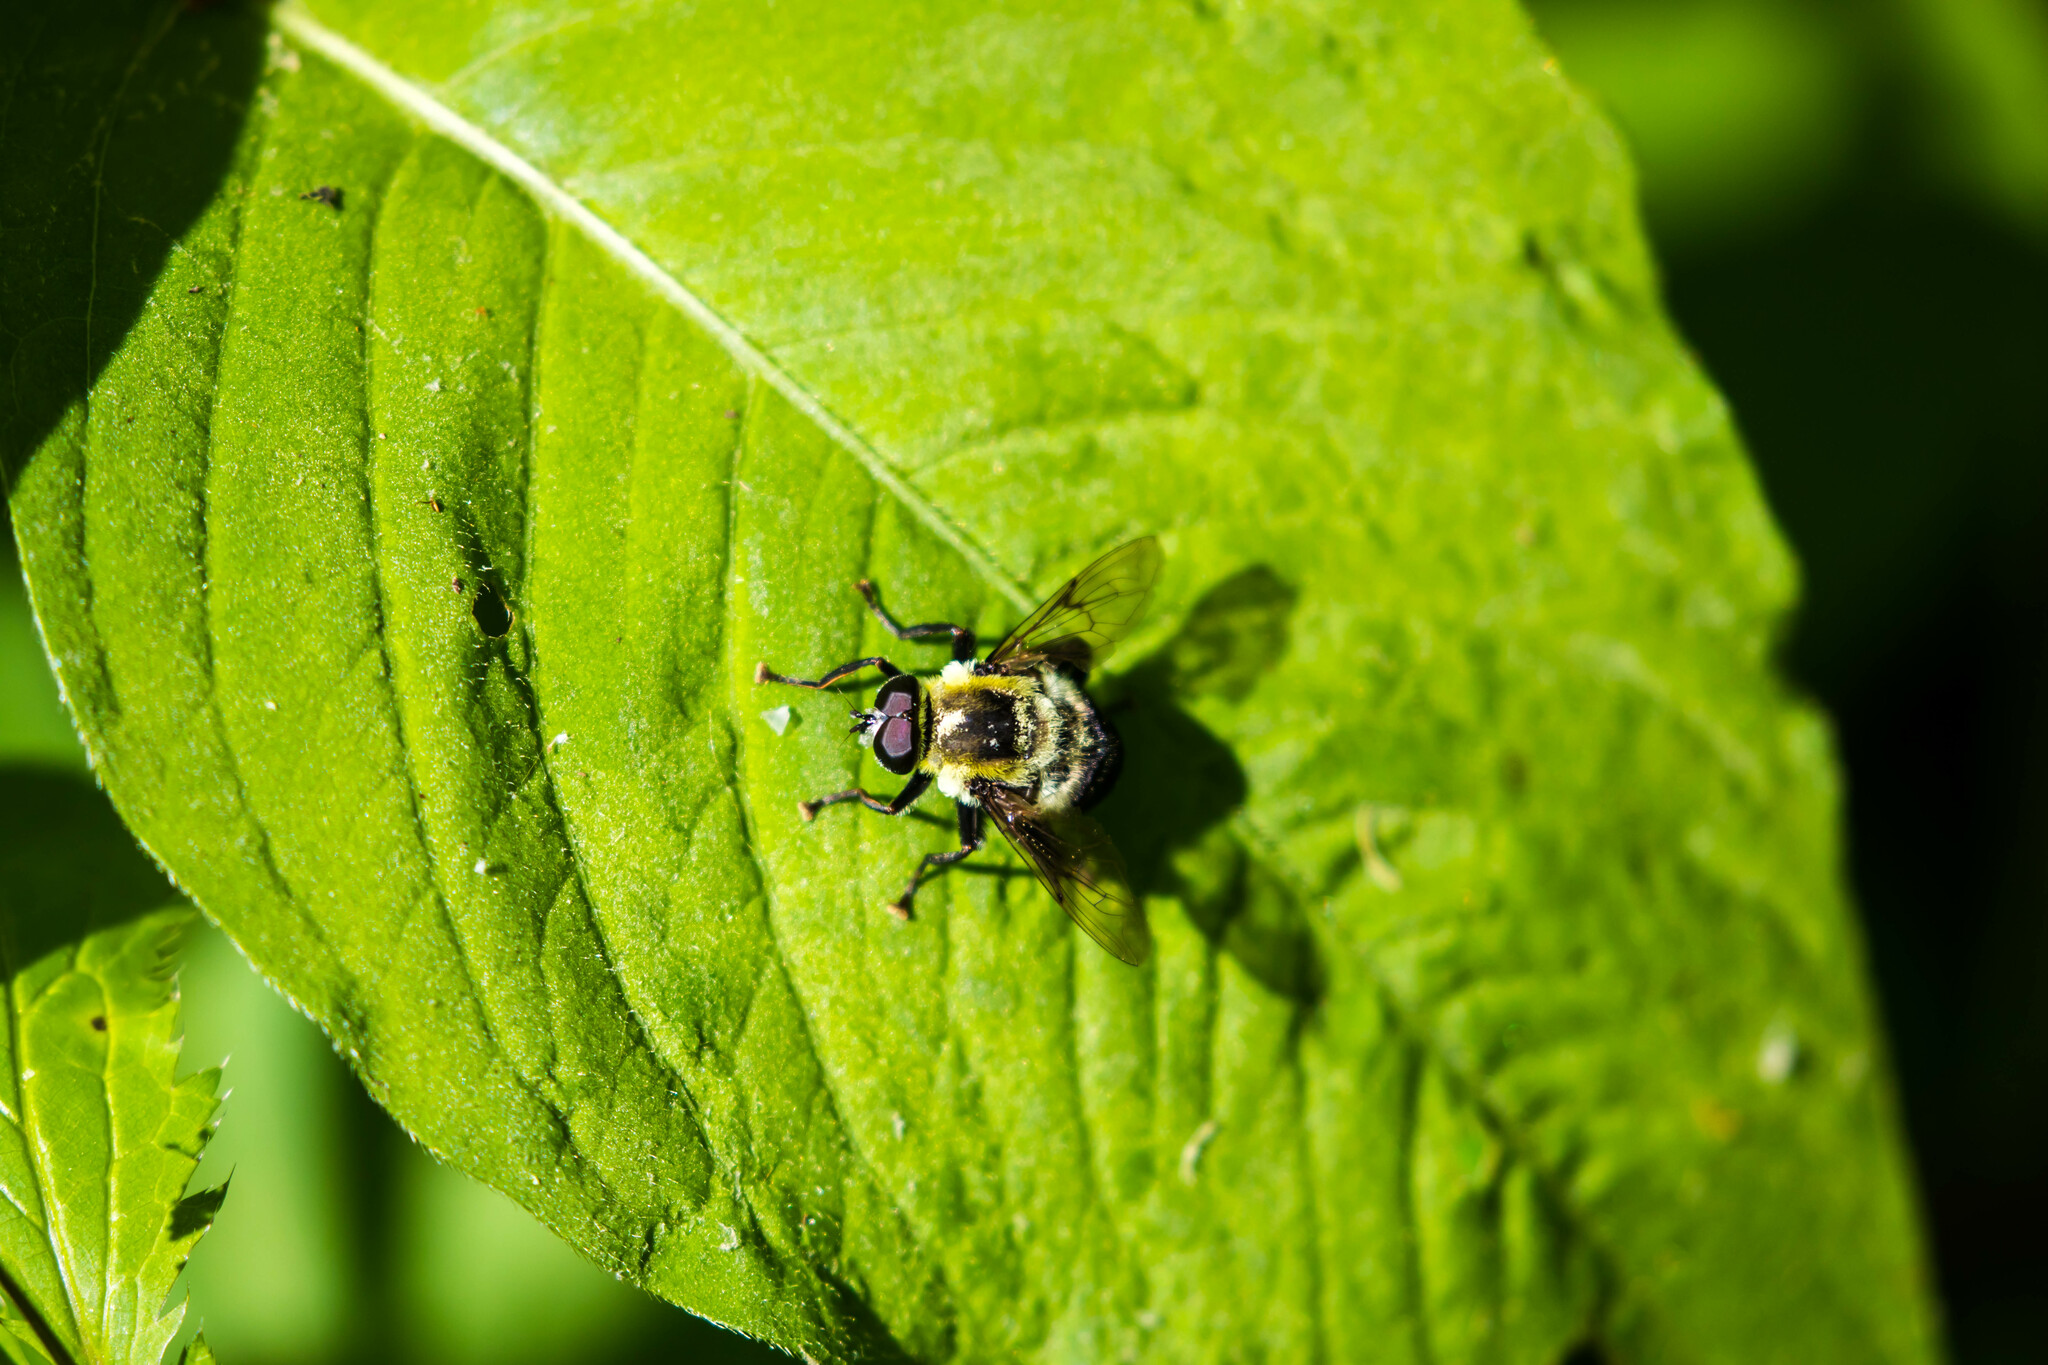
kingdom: Animalia
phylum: Arthropoda
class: Insecta
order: Diptera
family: Syrphidae
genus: Imatisma
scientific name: Imatisma posticata
